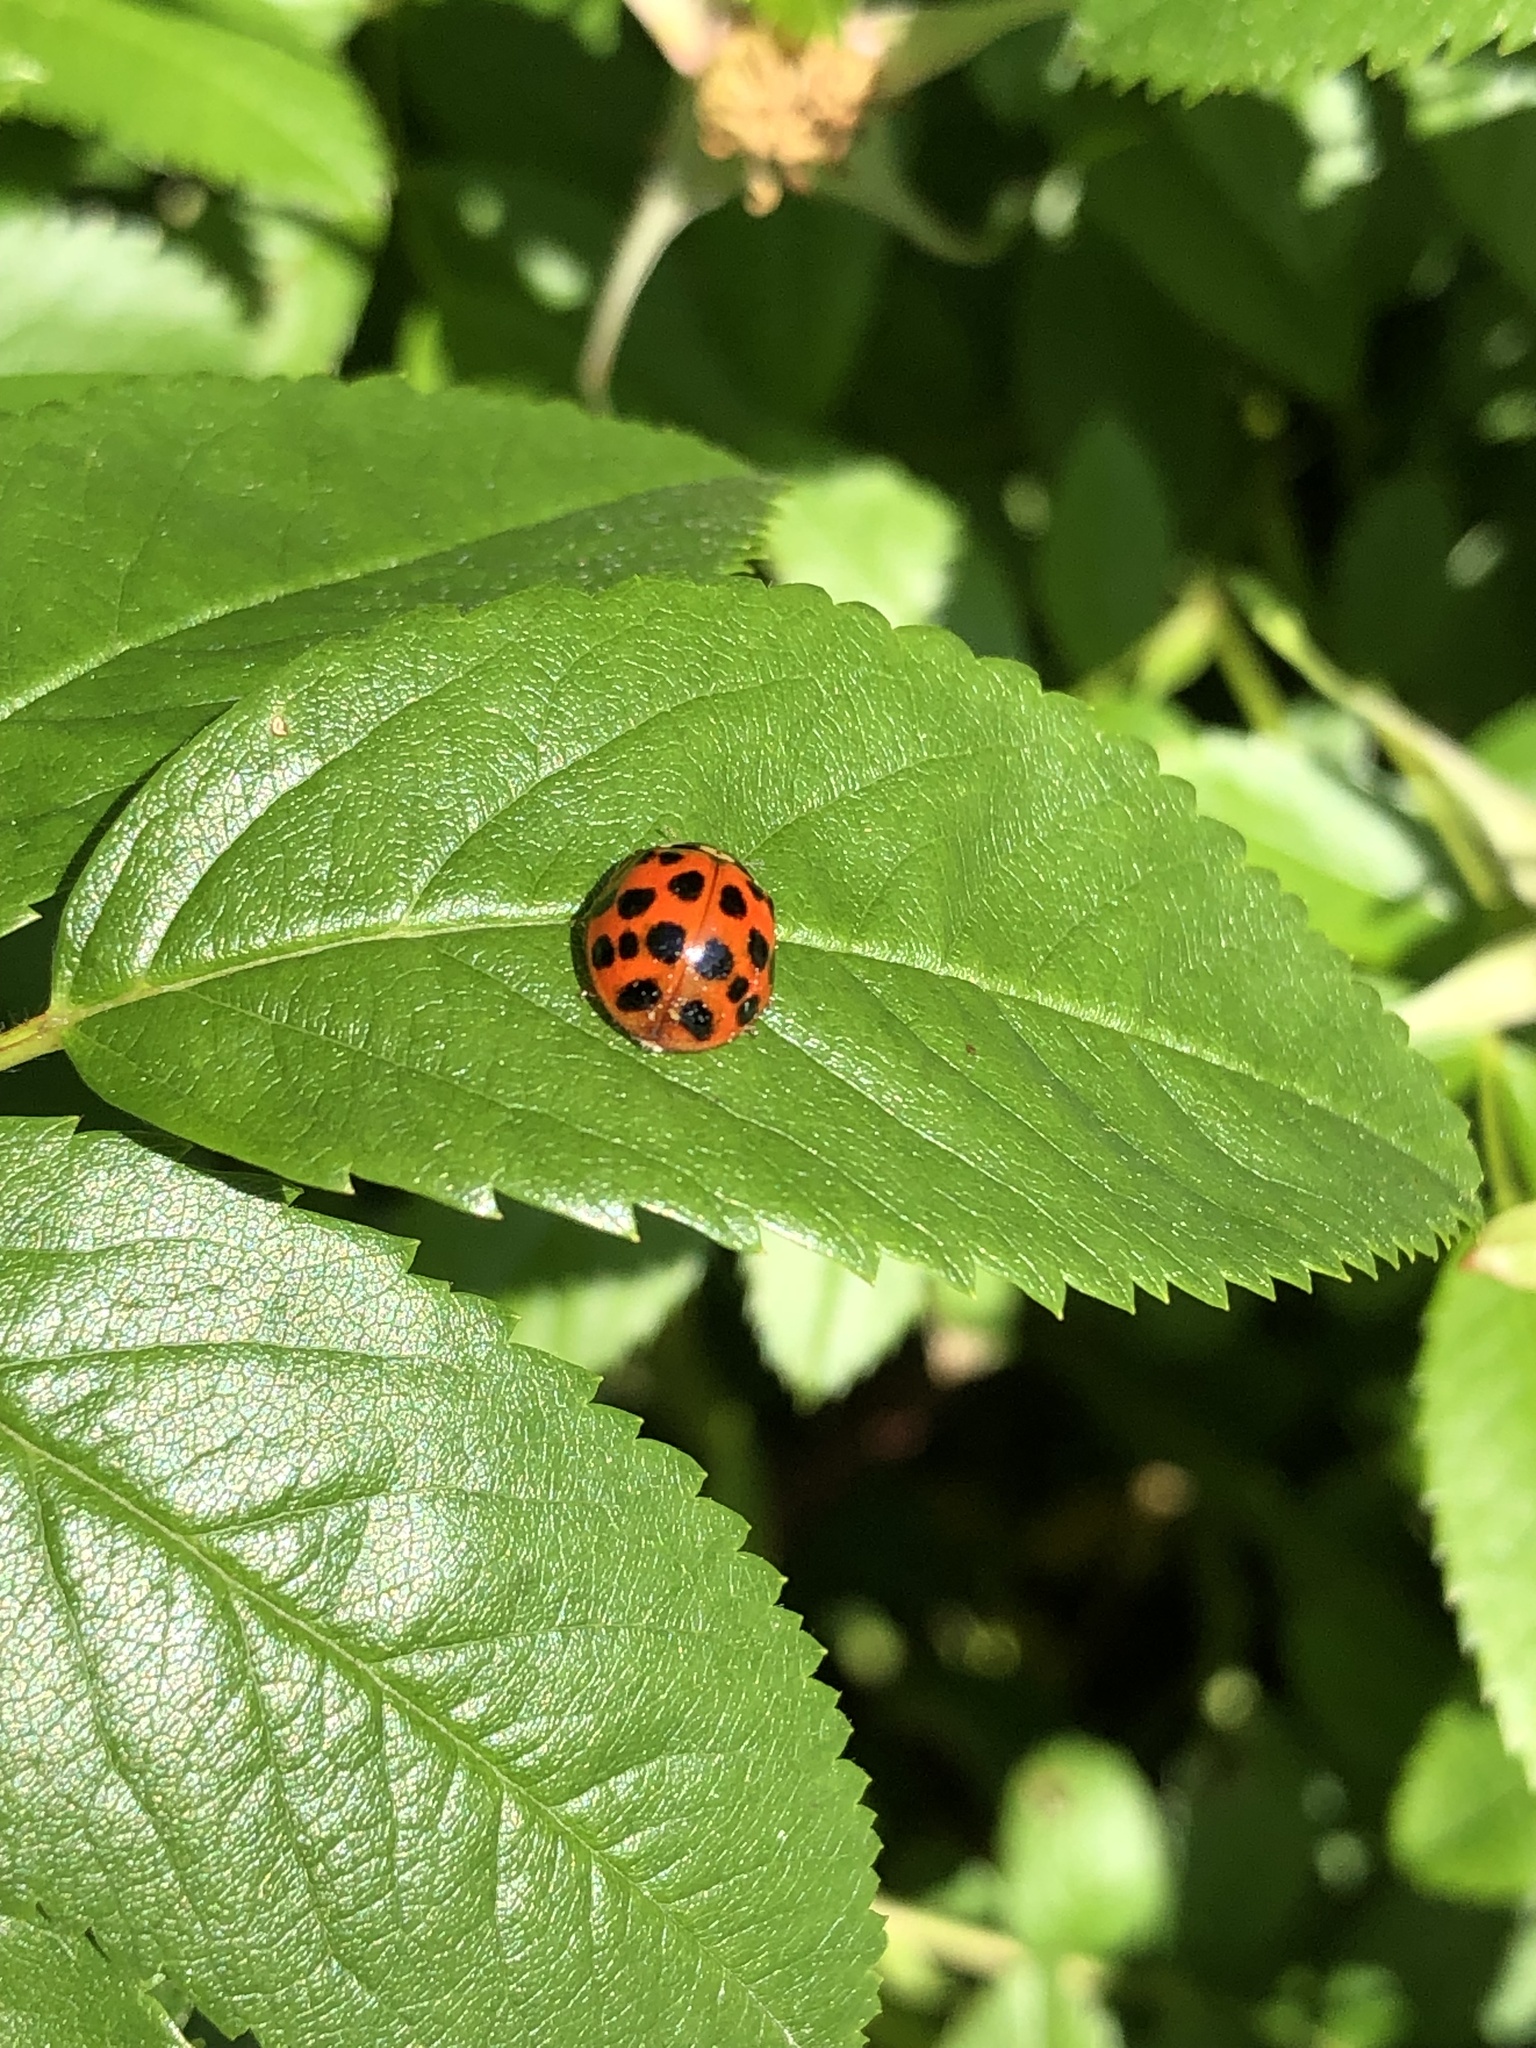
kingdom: Animalia
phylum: Arthropoda
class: Insecta
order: Coleoptera
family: Coccinellidae
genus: Harmonia
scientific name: Harmonia axyridis
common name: Harlequin ladybird
